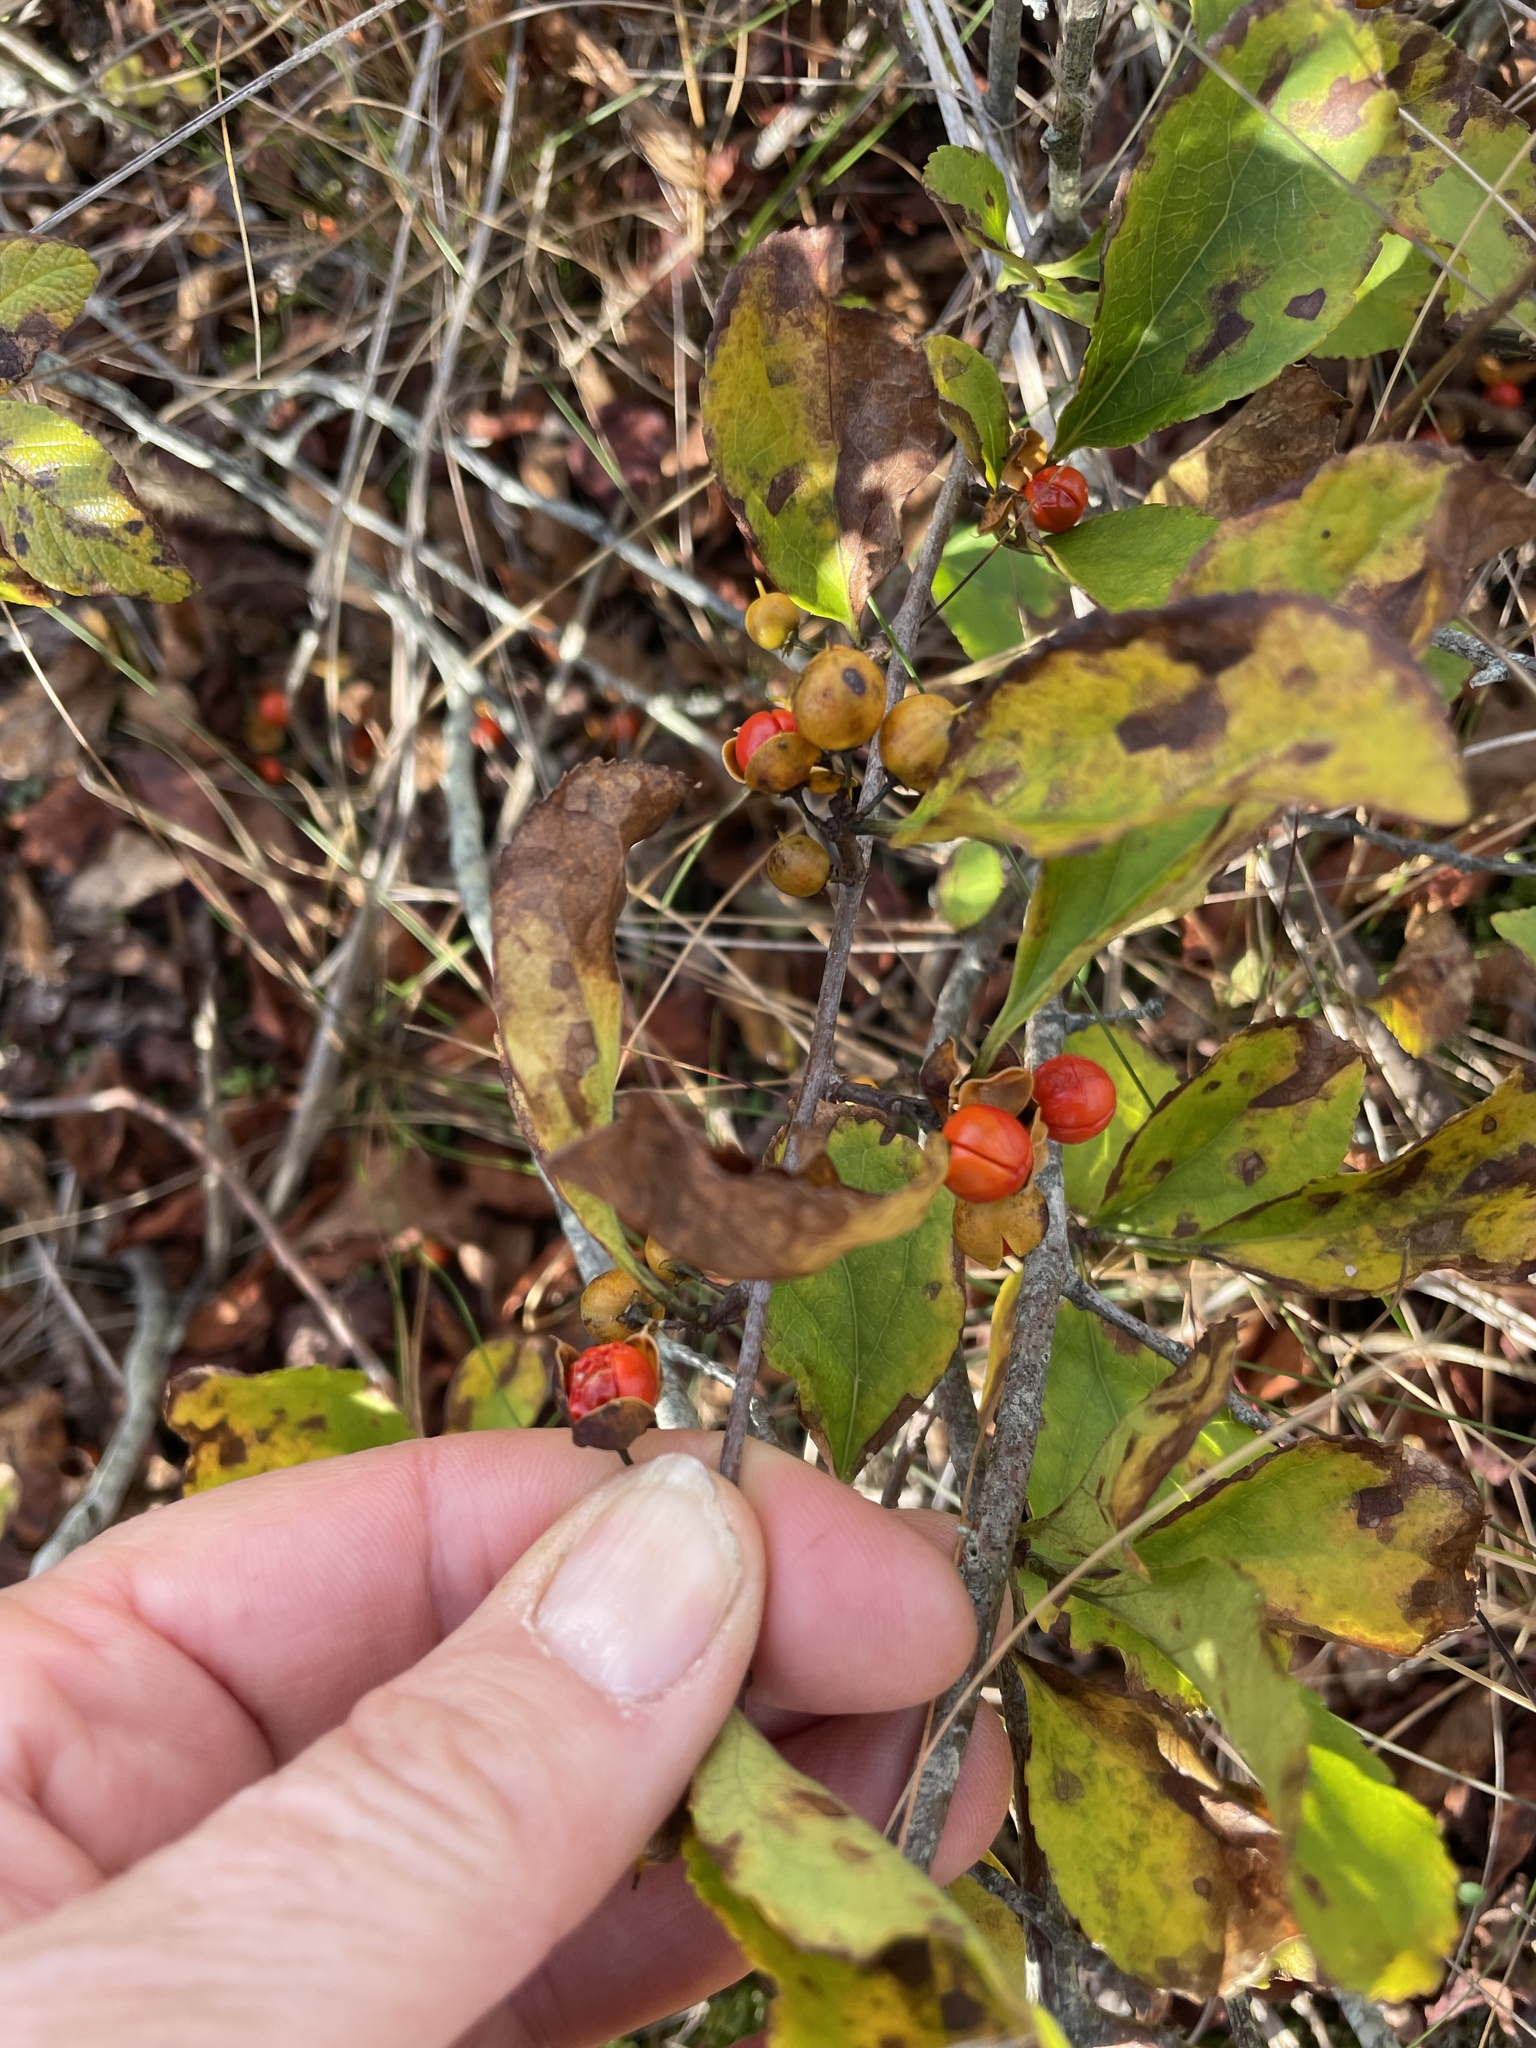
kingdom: Plantae
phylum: Tracheophyta
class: Magnoliopsida
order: Celastrales
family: Celastraceae
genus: Celastrus
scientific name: Celastrus orbiculatus
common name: Oriental bittersweet
